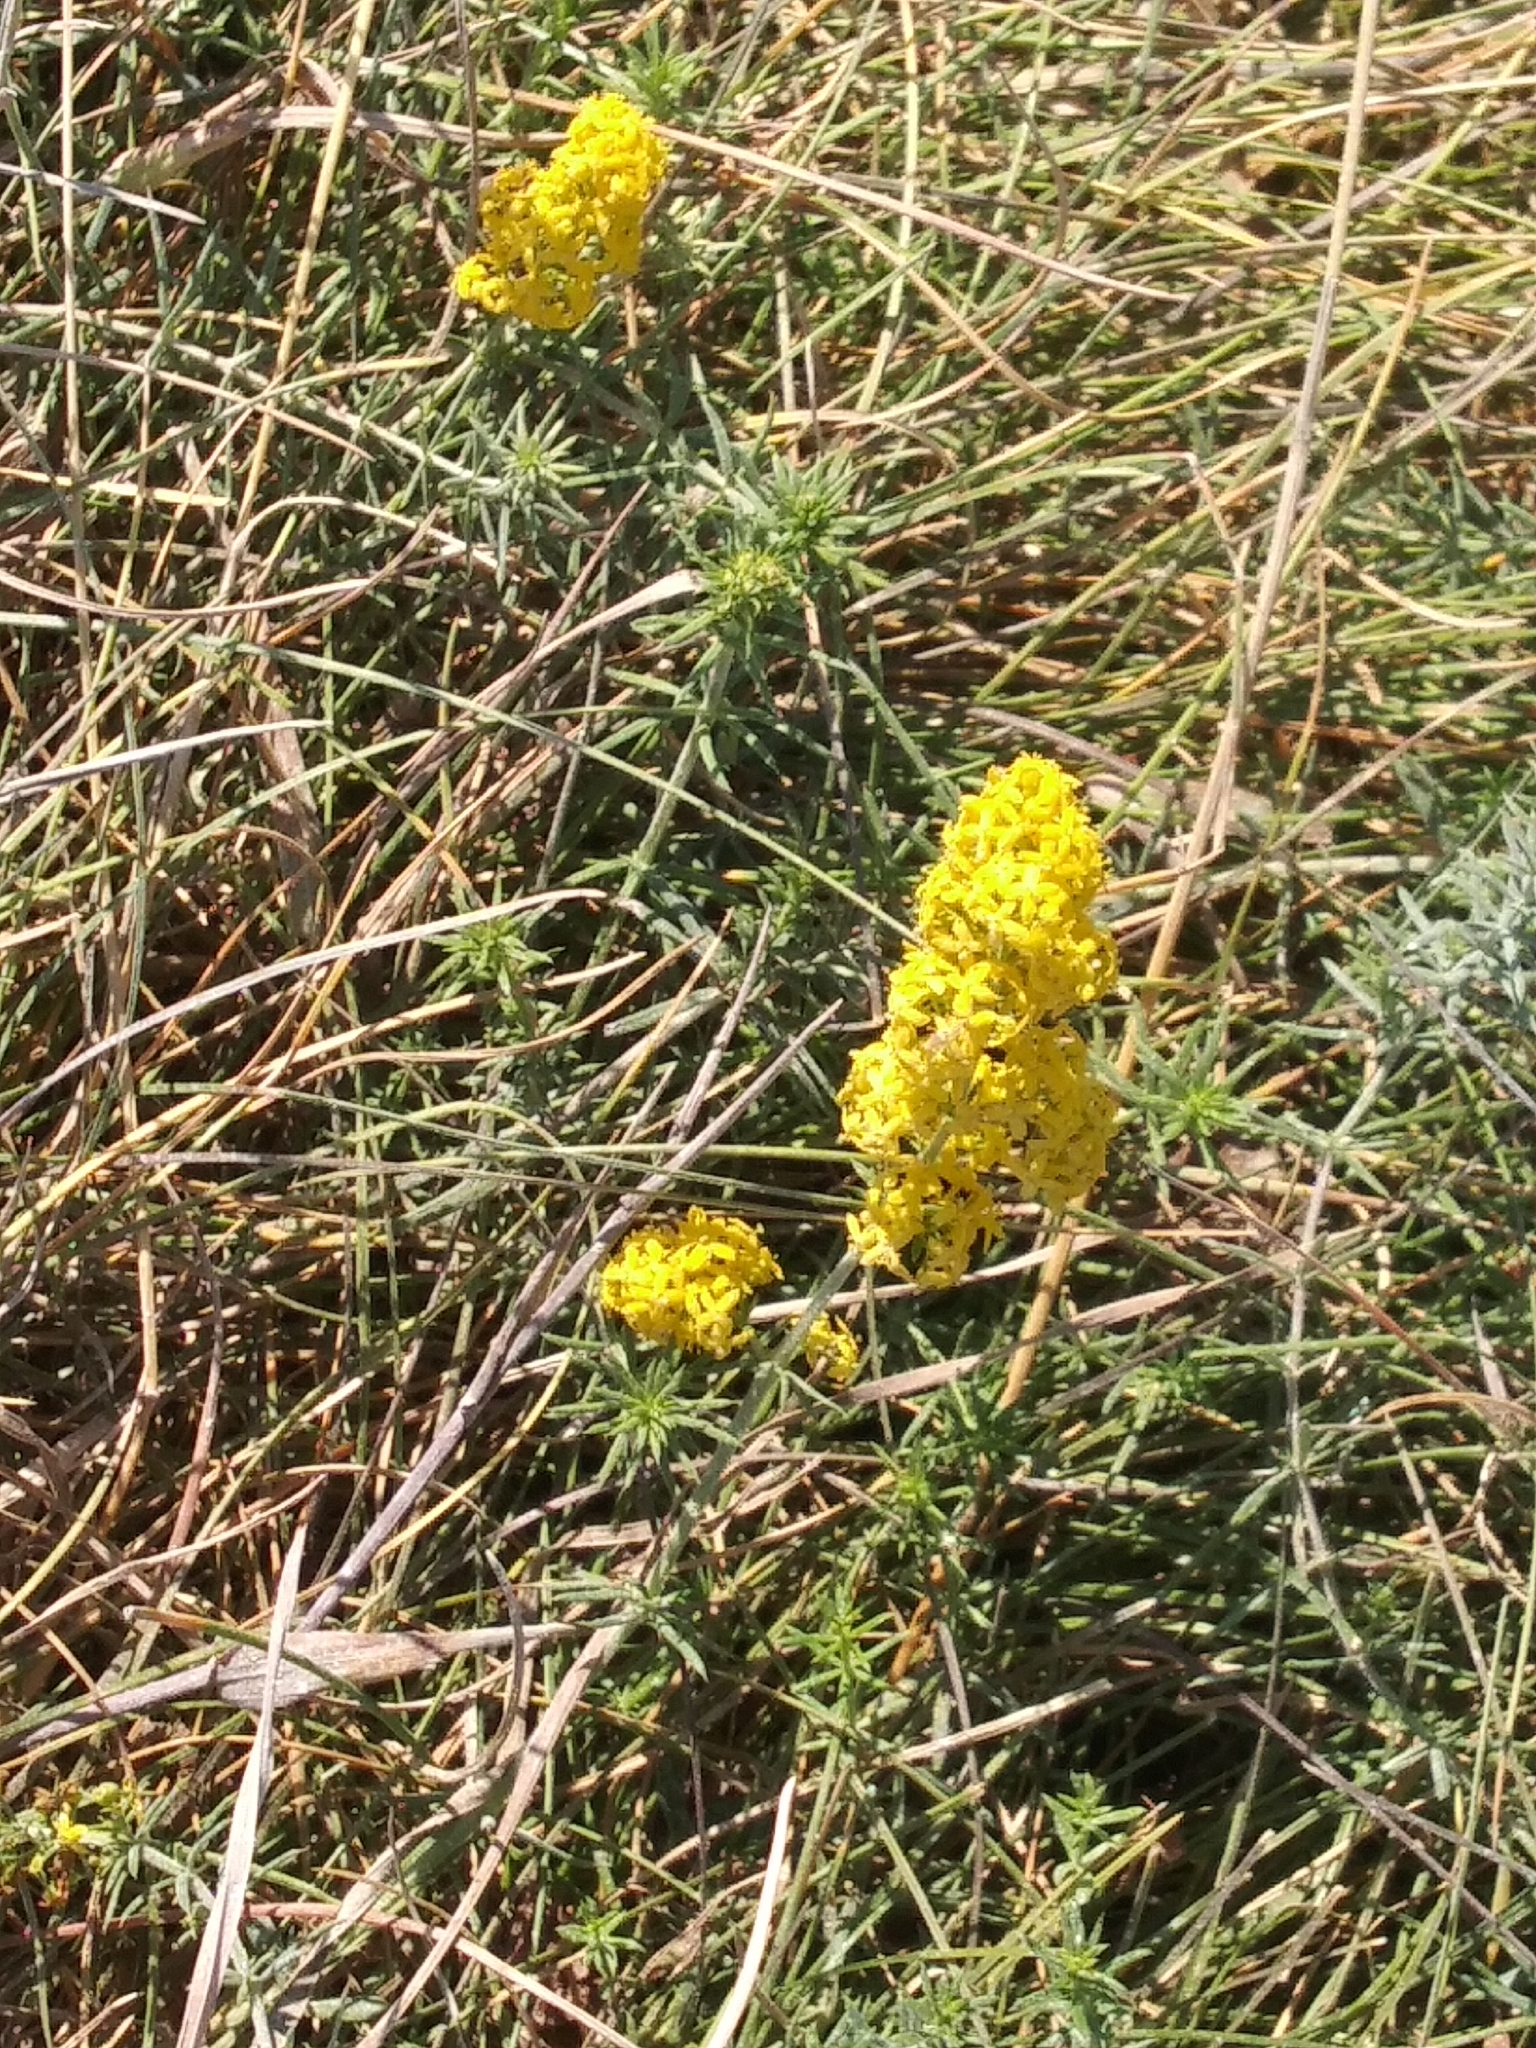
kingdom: Plantae
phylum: Tracheophyta
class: Magnoliopsida
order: Gentianales
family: Rubiaceae
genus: Galium
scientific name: Galium verum
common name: Lady's bedstraw
